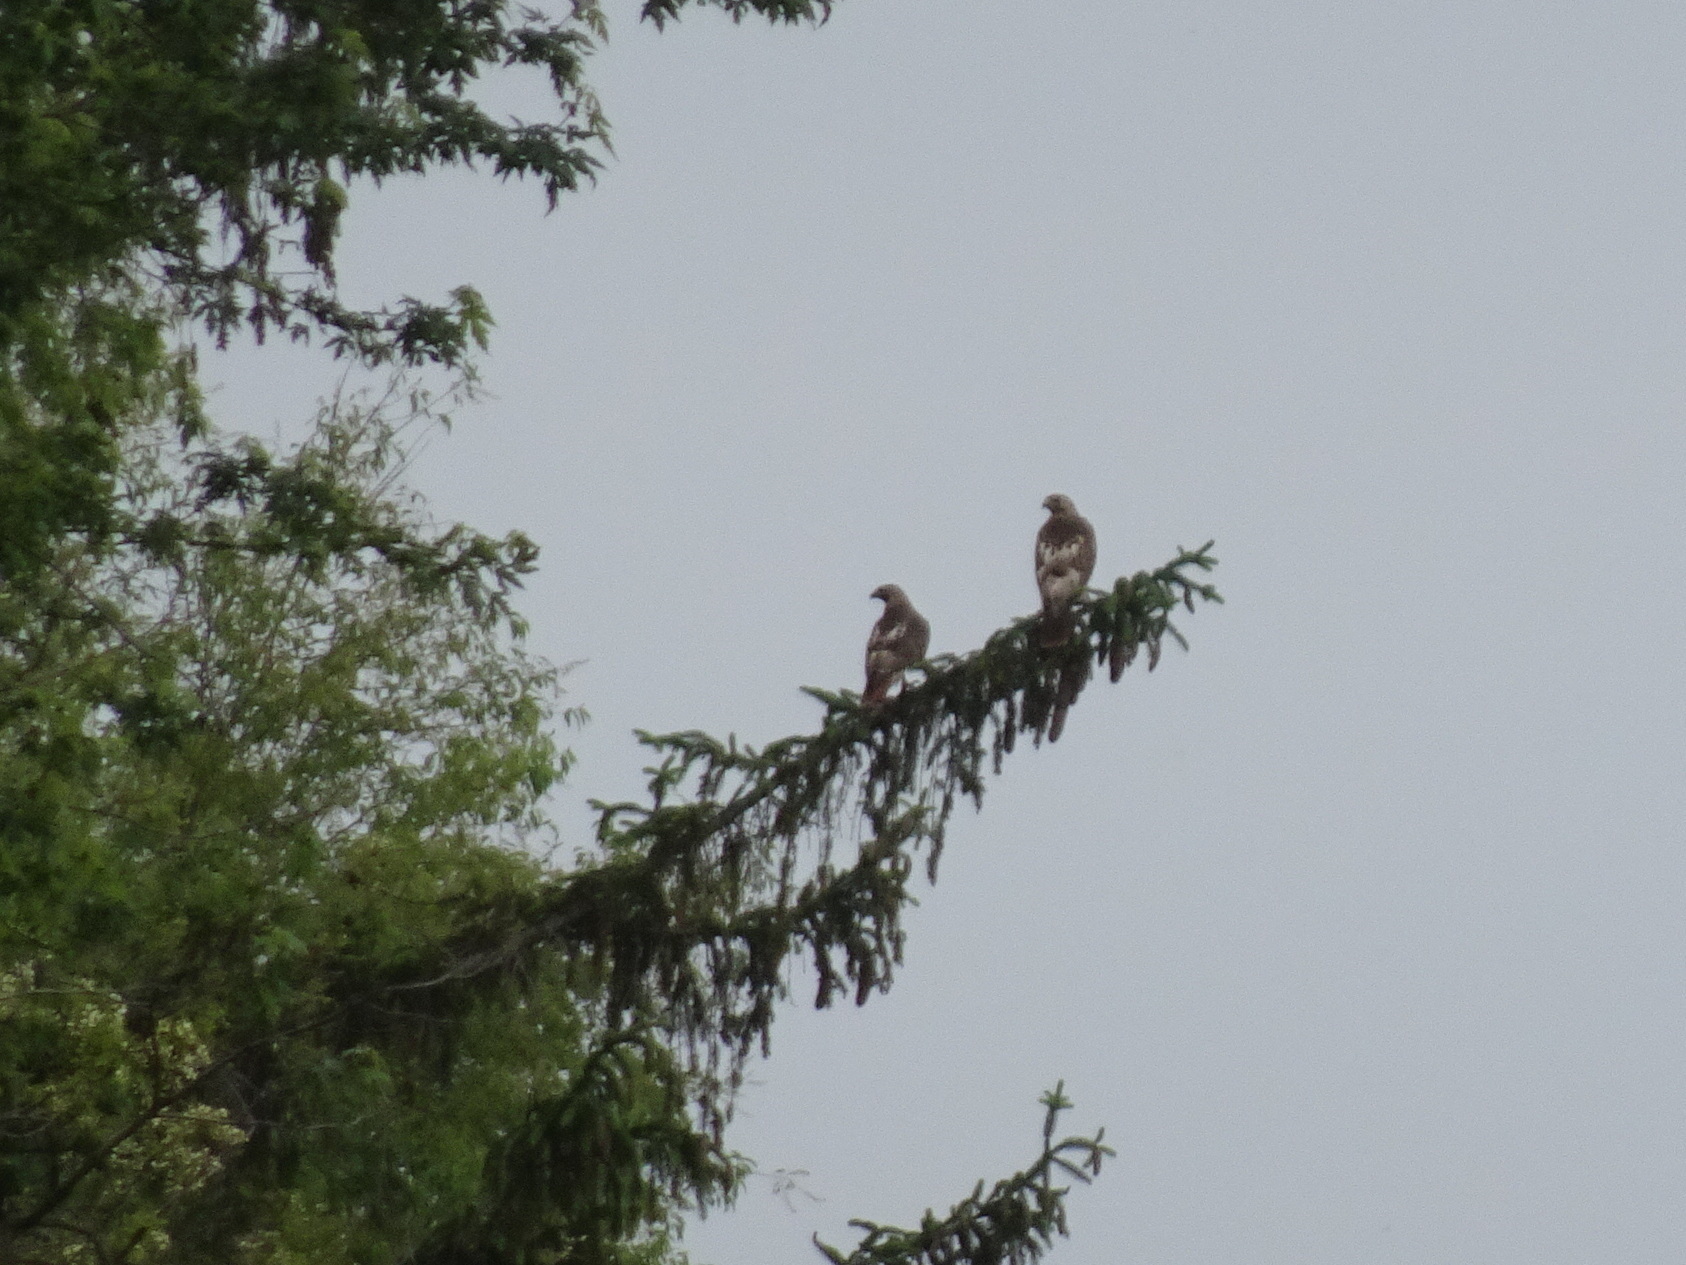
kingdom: Animalia
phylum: Chordata
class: Aves
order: Accipitriformes
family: Accipitridae
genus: Buteo
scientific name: Buteo jamaicensis
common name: Red-tailed hawk
